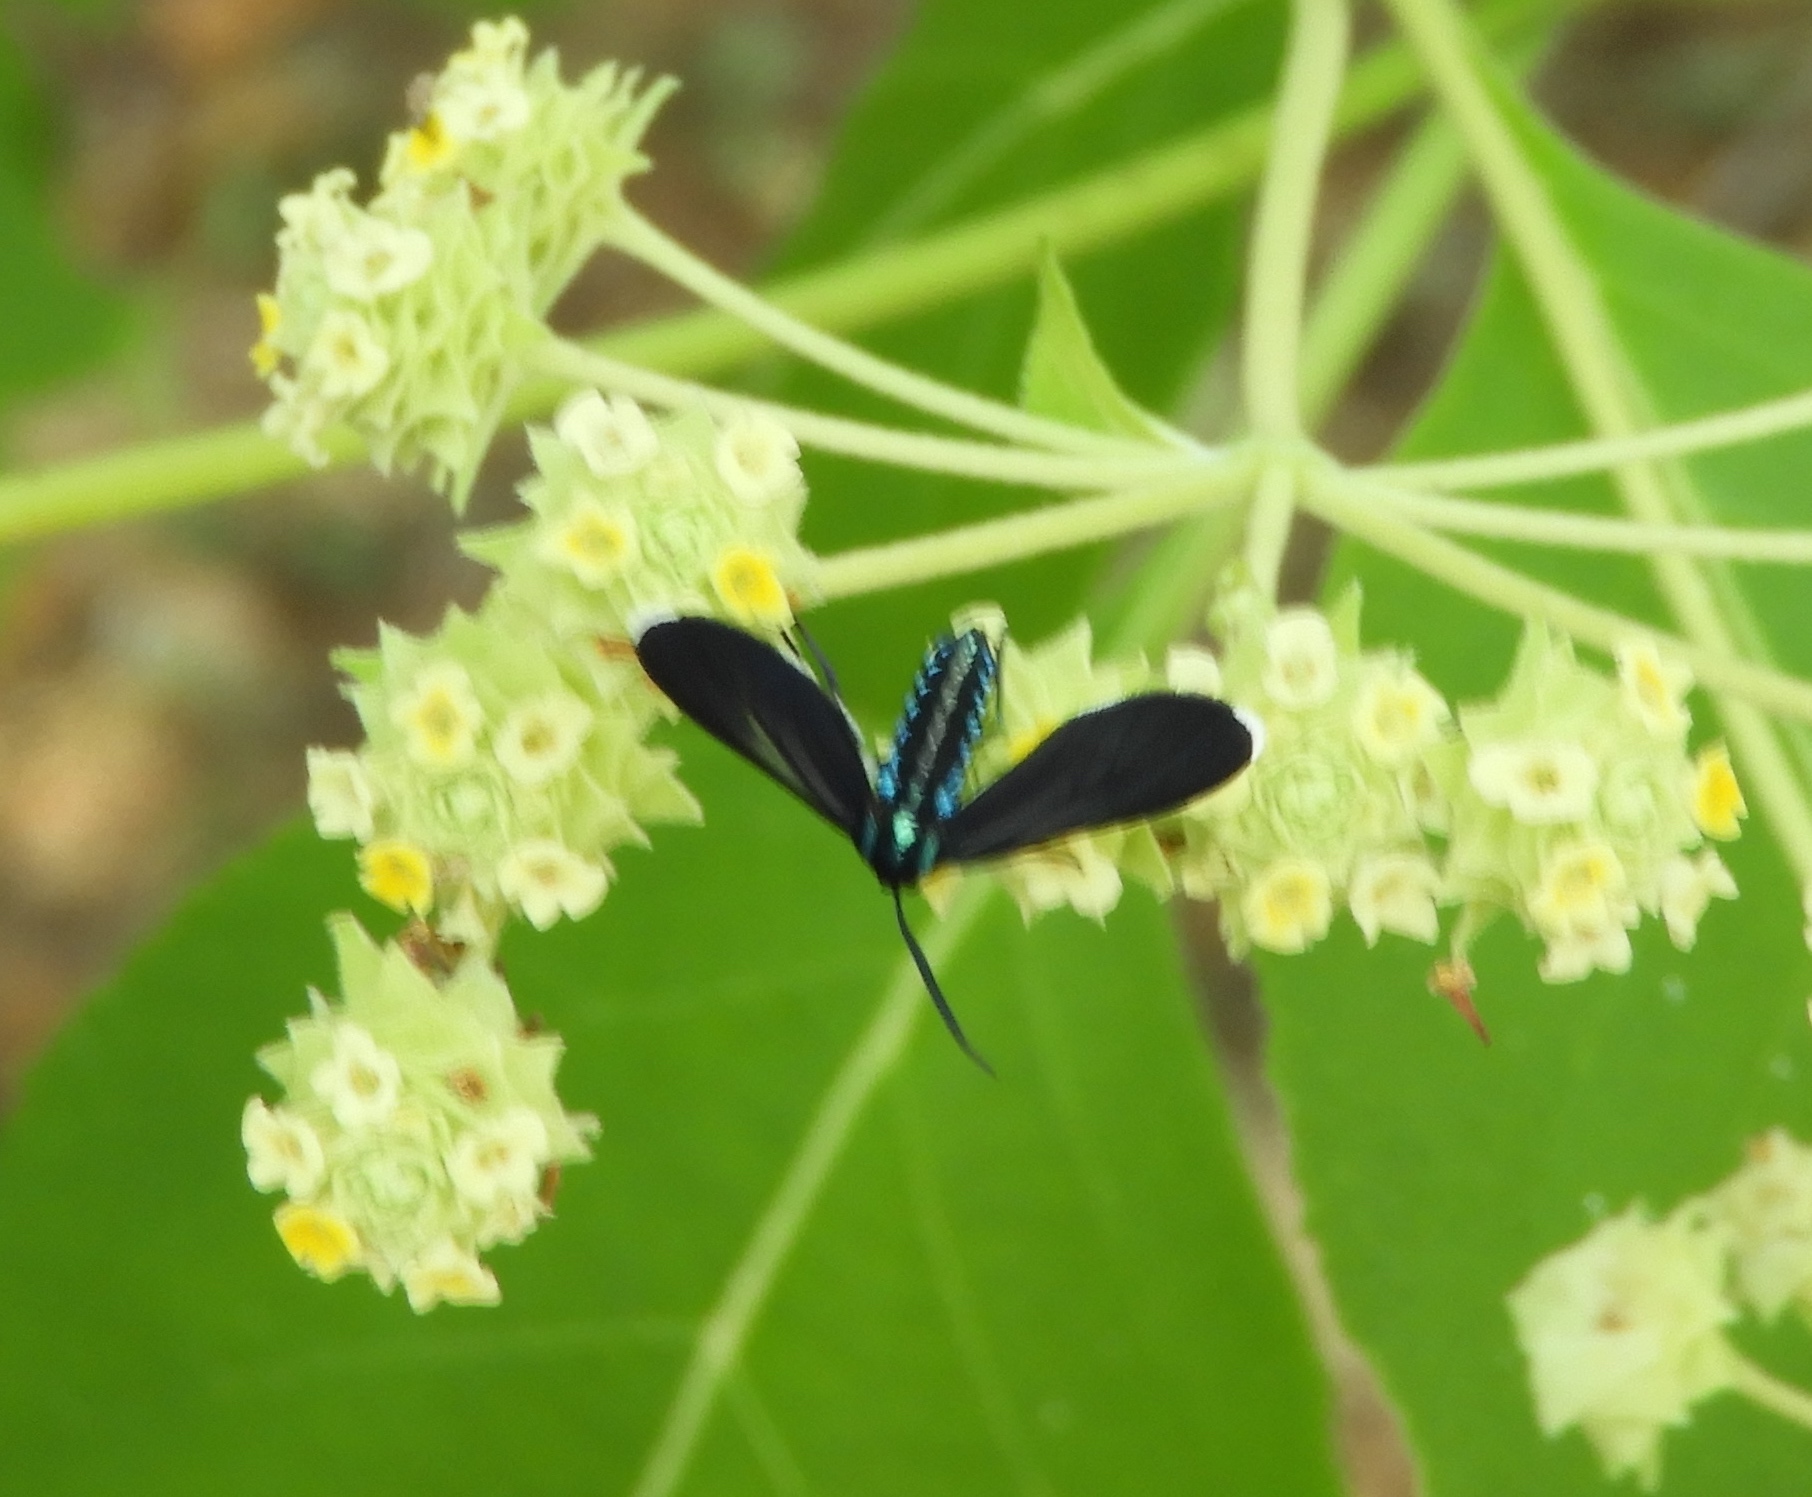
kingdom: Animalia
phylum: Arthropoda
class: Insecta
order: Lepidoptera
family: Erebidae
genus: Uranophora
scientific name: Uranophora leucotela
